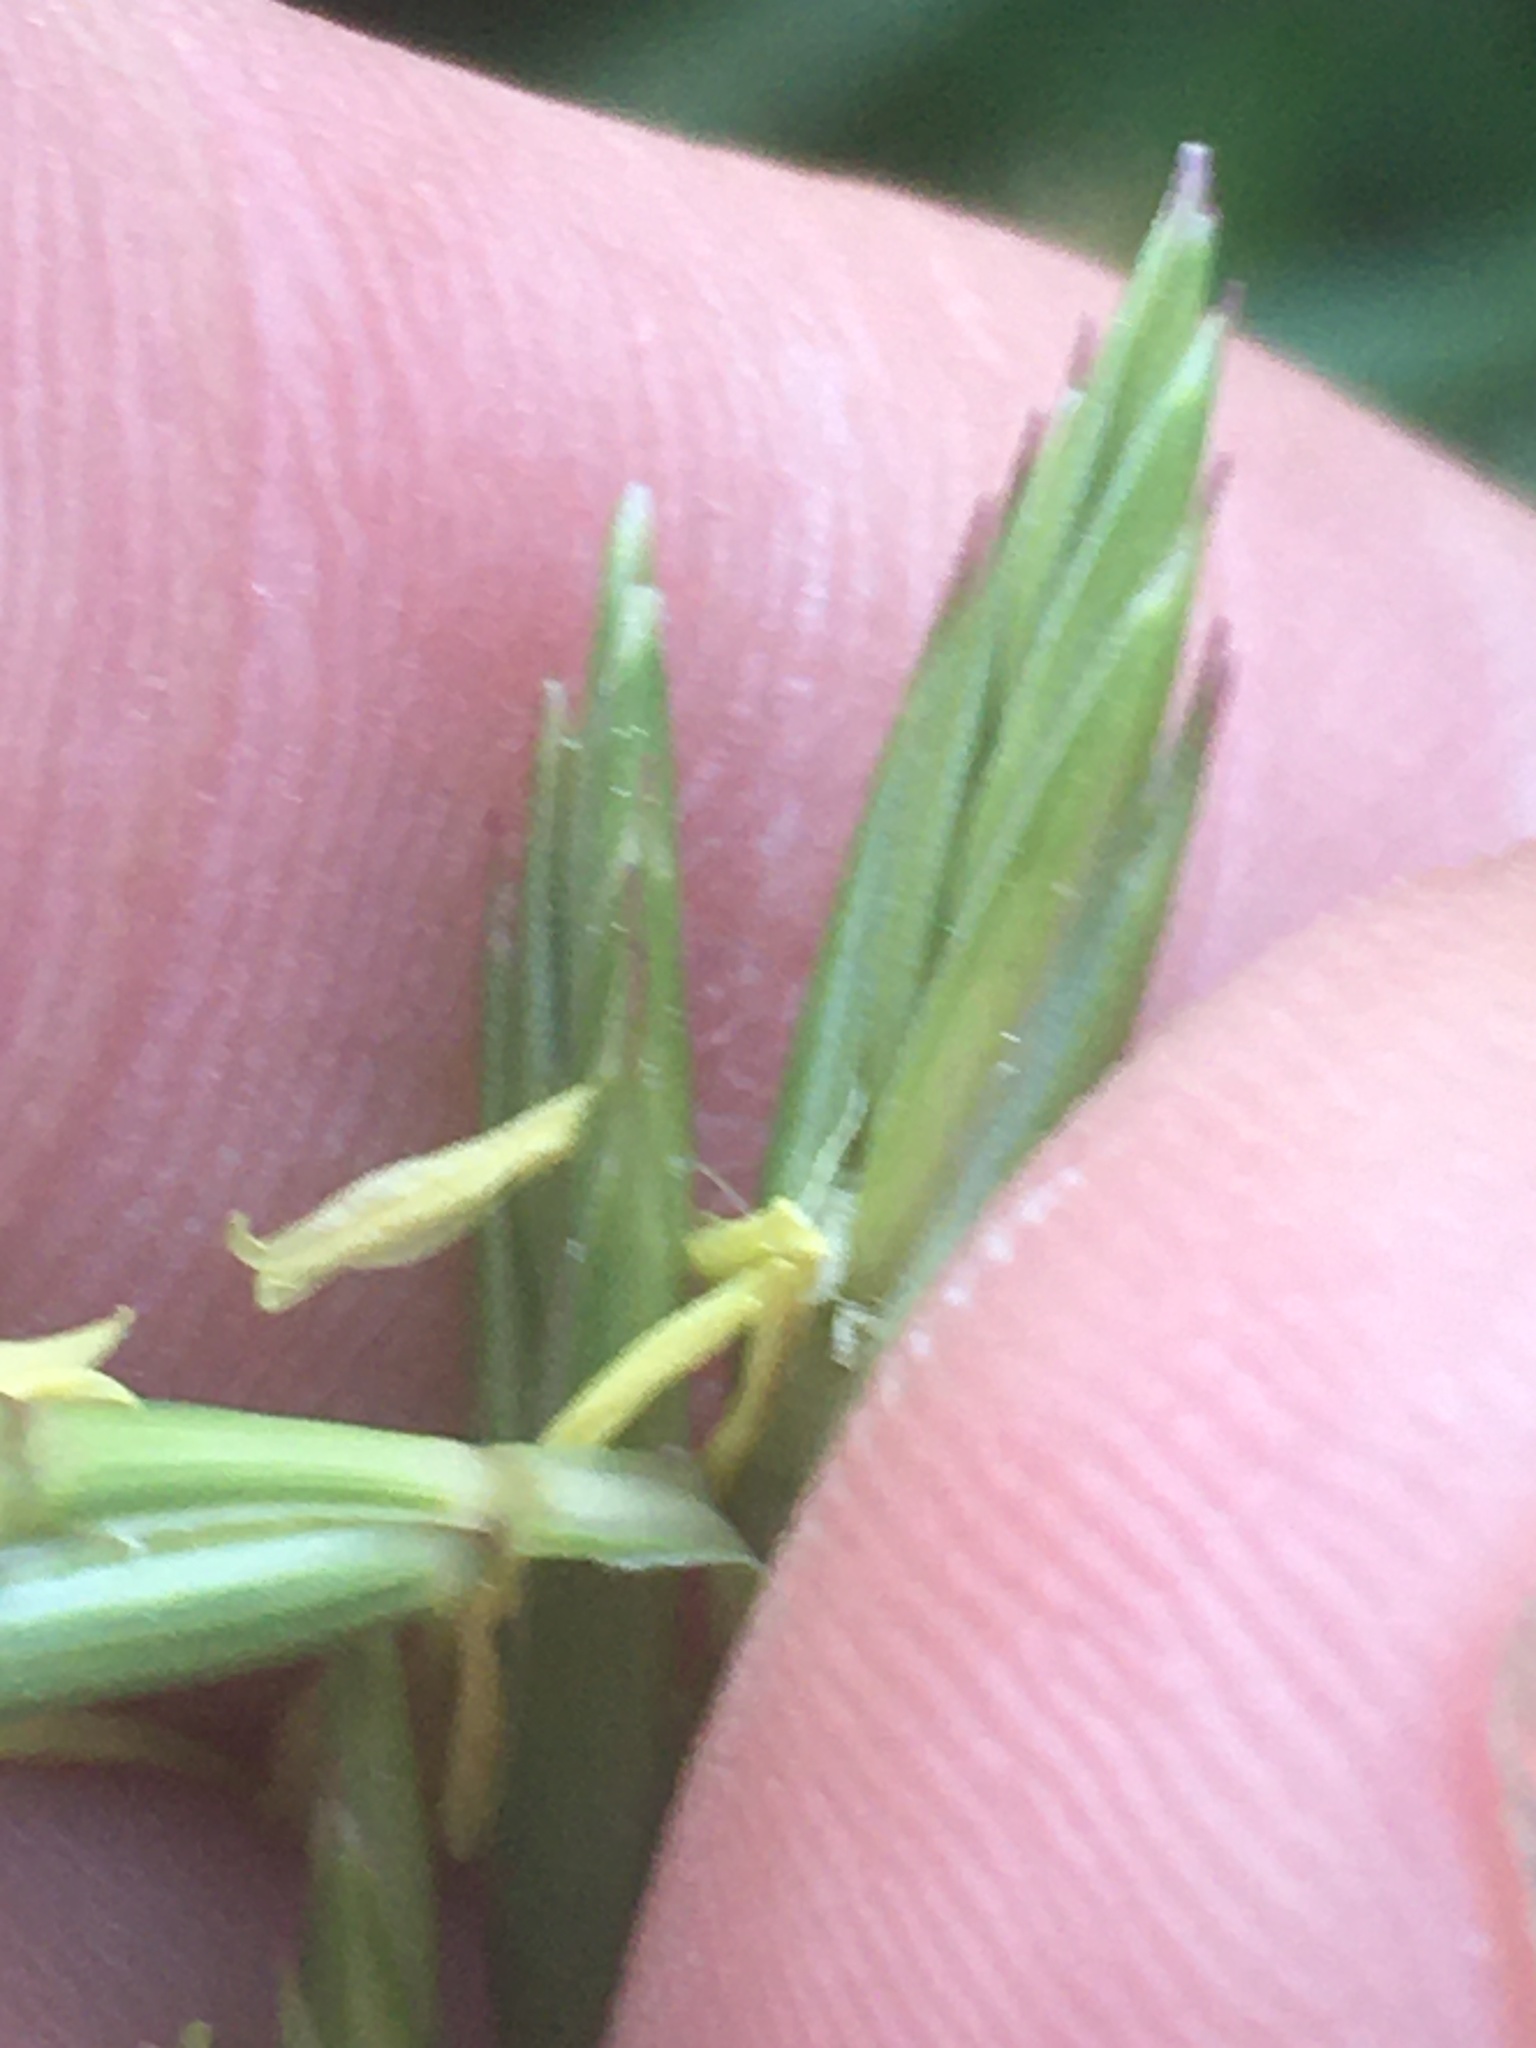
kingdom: Plantae
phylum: Tracheophyta
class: Liliopsida
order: Poales
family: Poaceae
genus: Elymus
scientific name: Elymus repens
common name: Quackgrass
